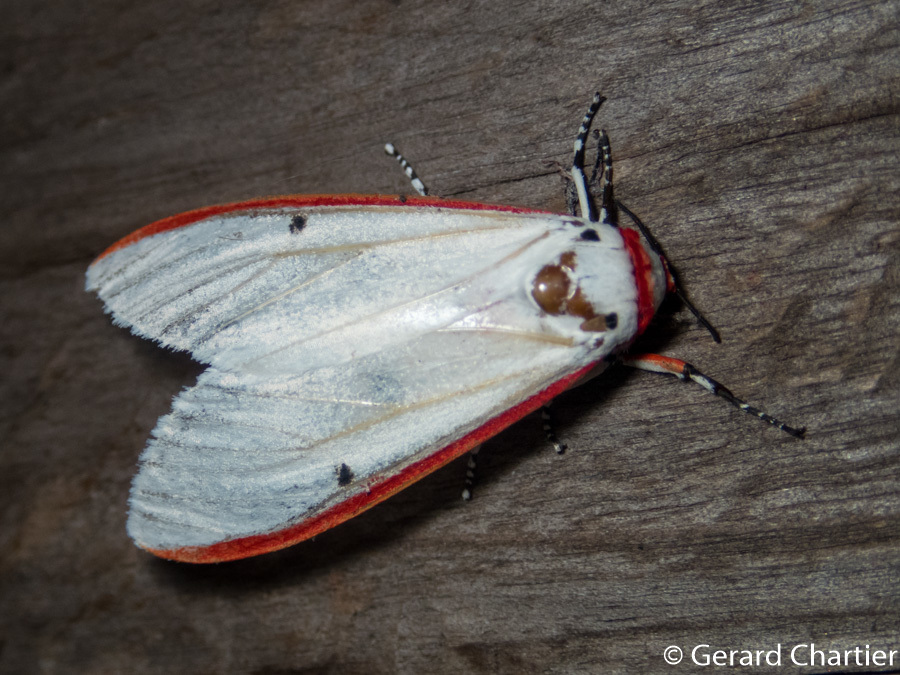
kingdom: Animalia
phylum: Arthropoda
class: Insecta
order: Lepidoptera
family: Erebidae
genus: Aloa
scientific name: Aloa lactinea
